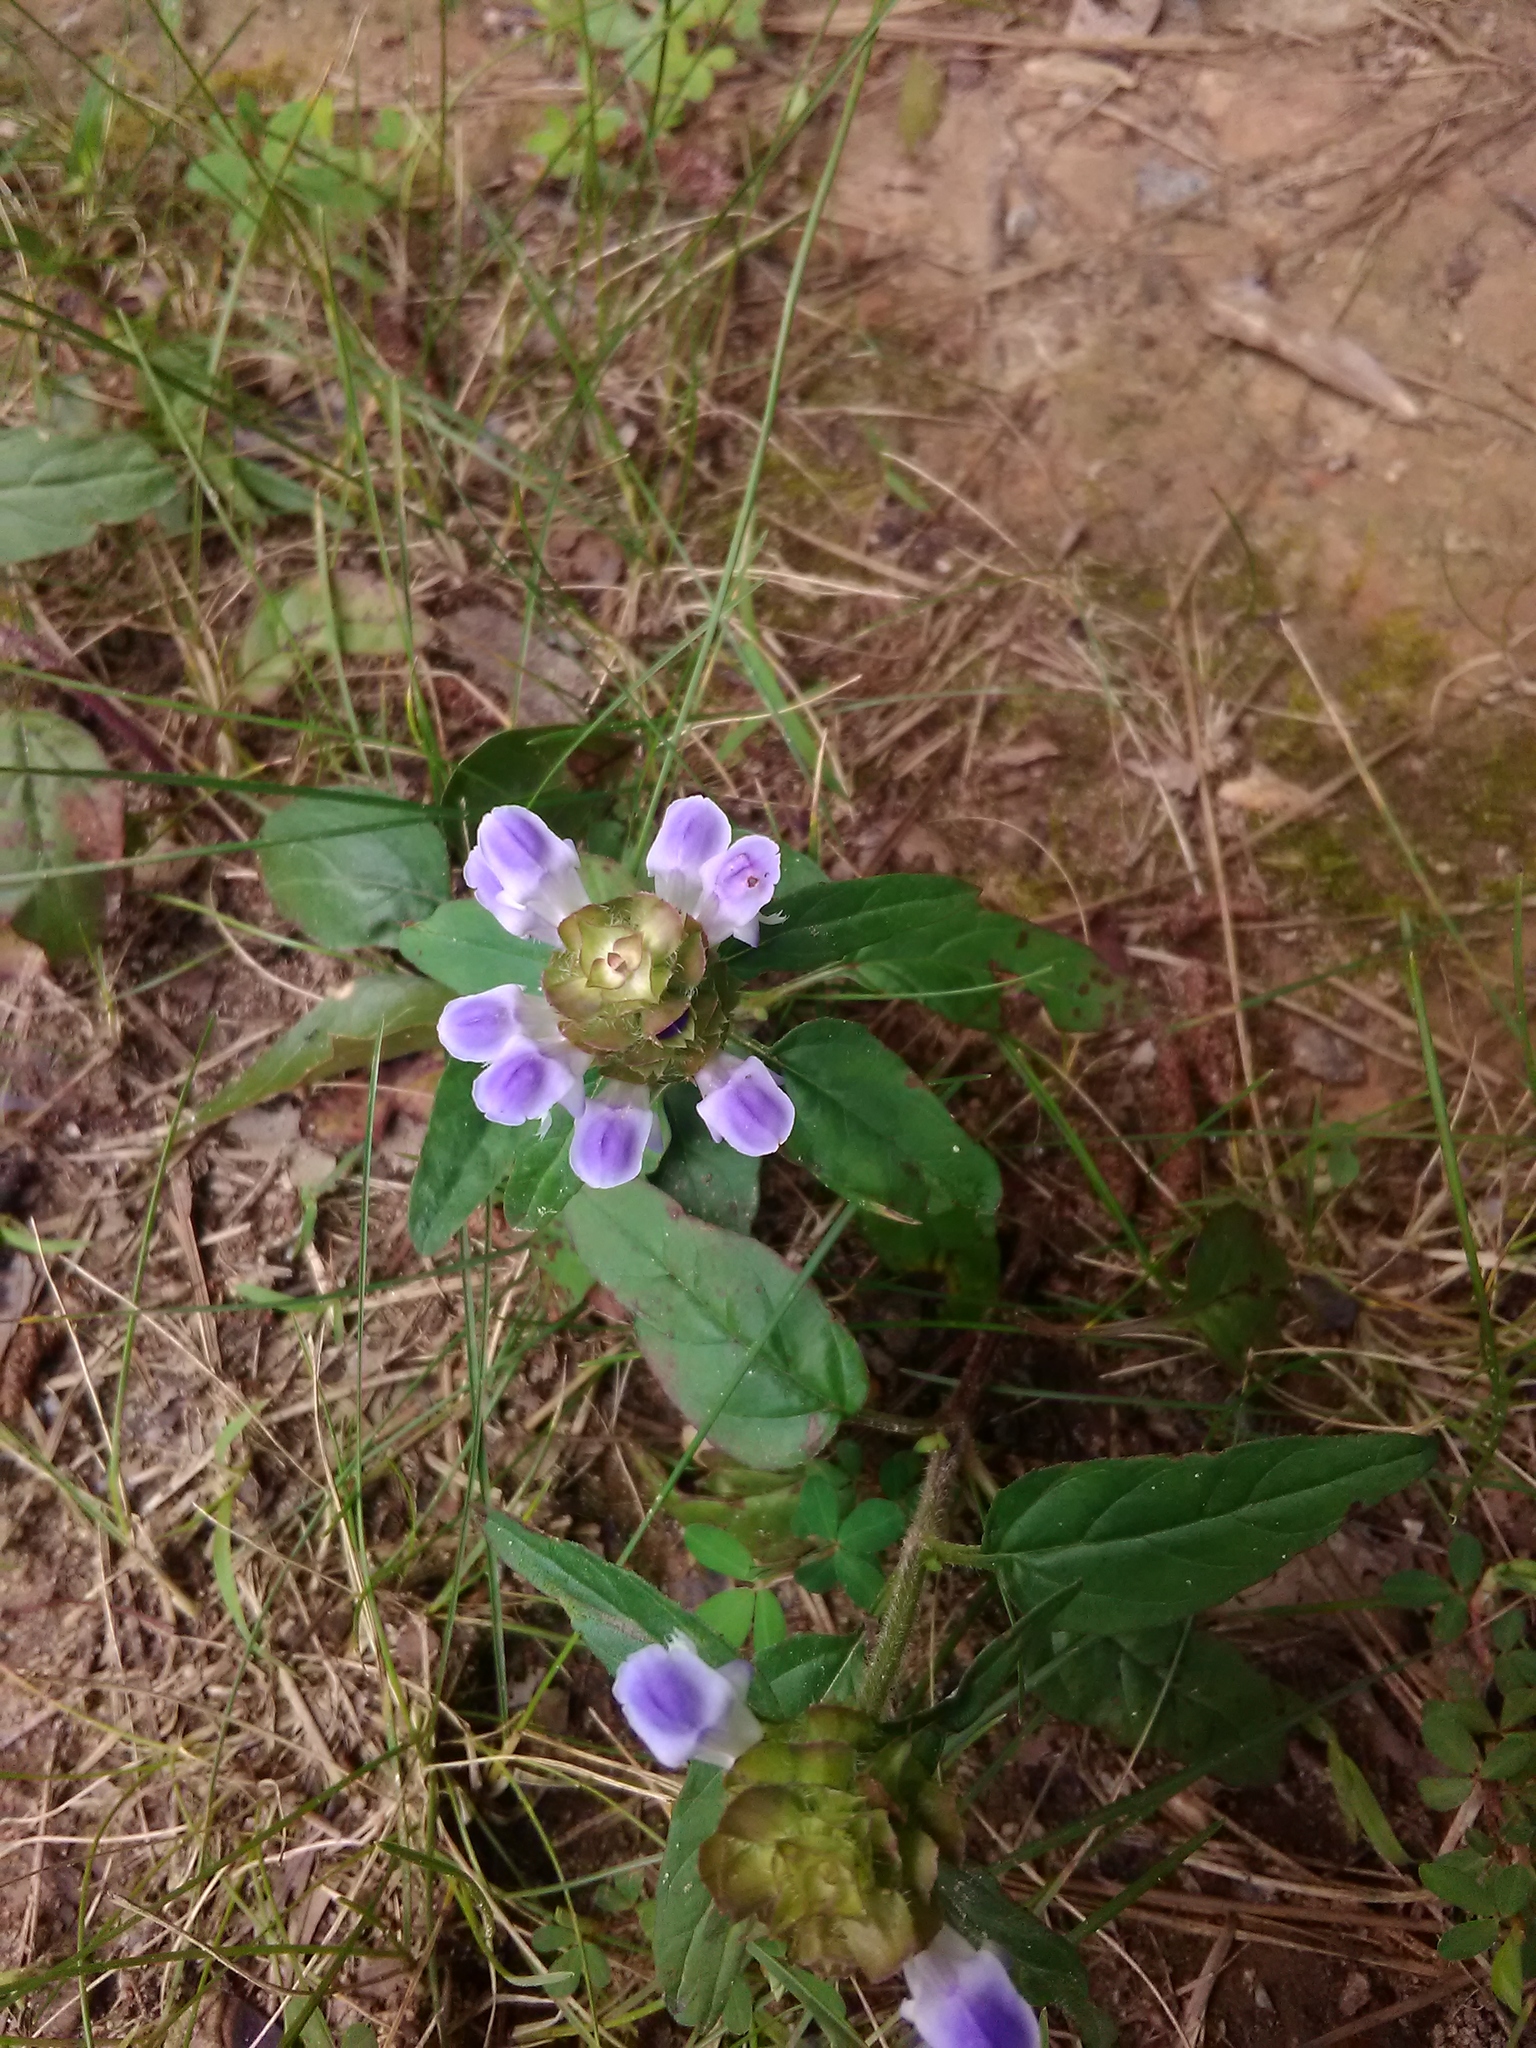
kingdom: Plantae
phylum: Tracheophyta
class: Magnoliopsida
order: Lamiales
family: Lamiaceae
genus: Prunella
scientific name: Prunella vulgaris
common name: Heal-all
